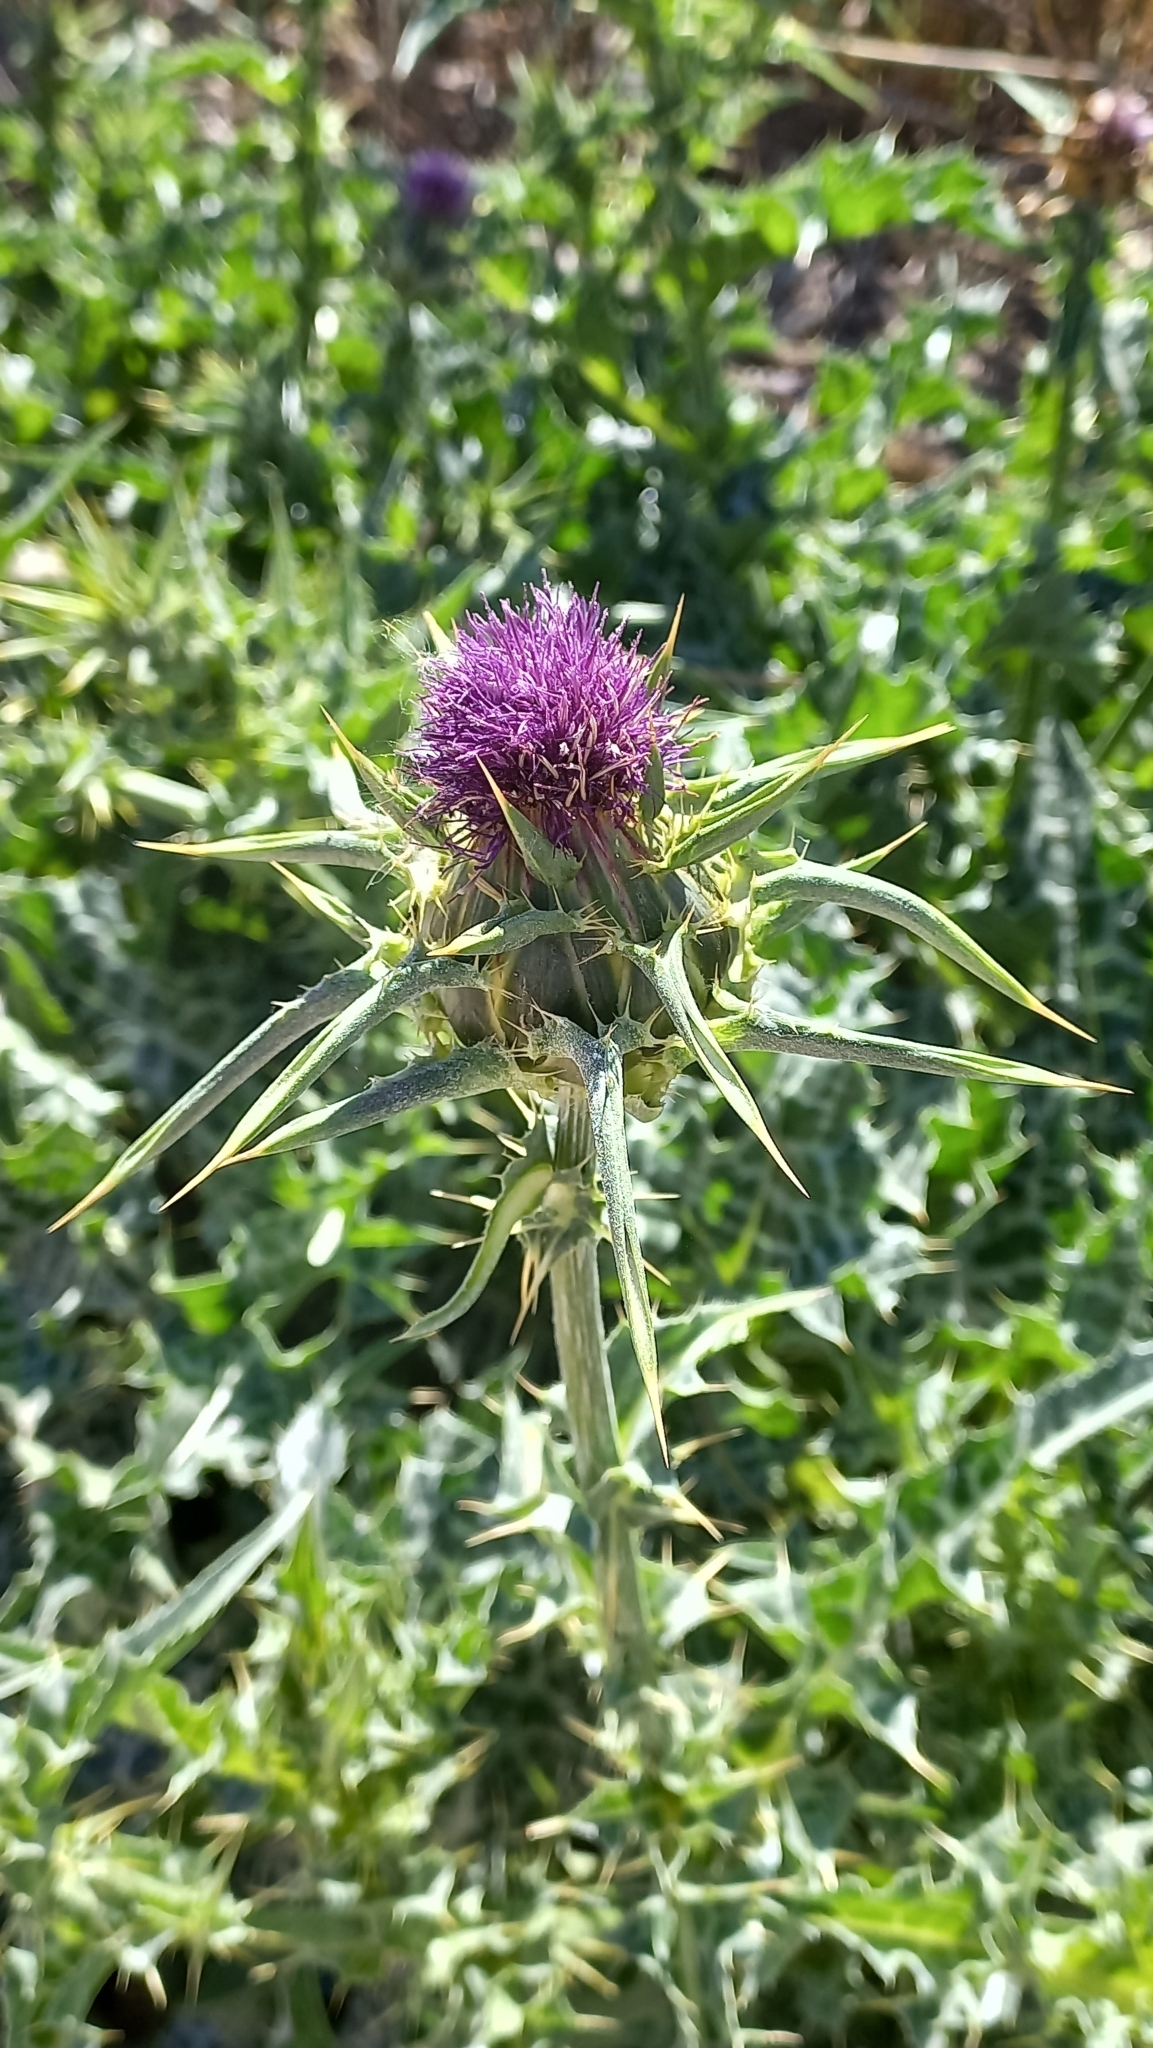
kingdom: Plantae
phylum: Tracheophyta
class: Magnoliopsida
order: Asterales
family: Asteraceae
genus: Silybum
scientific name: Silybum marianum
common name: Milk thistle
